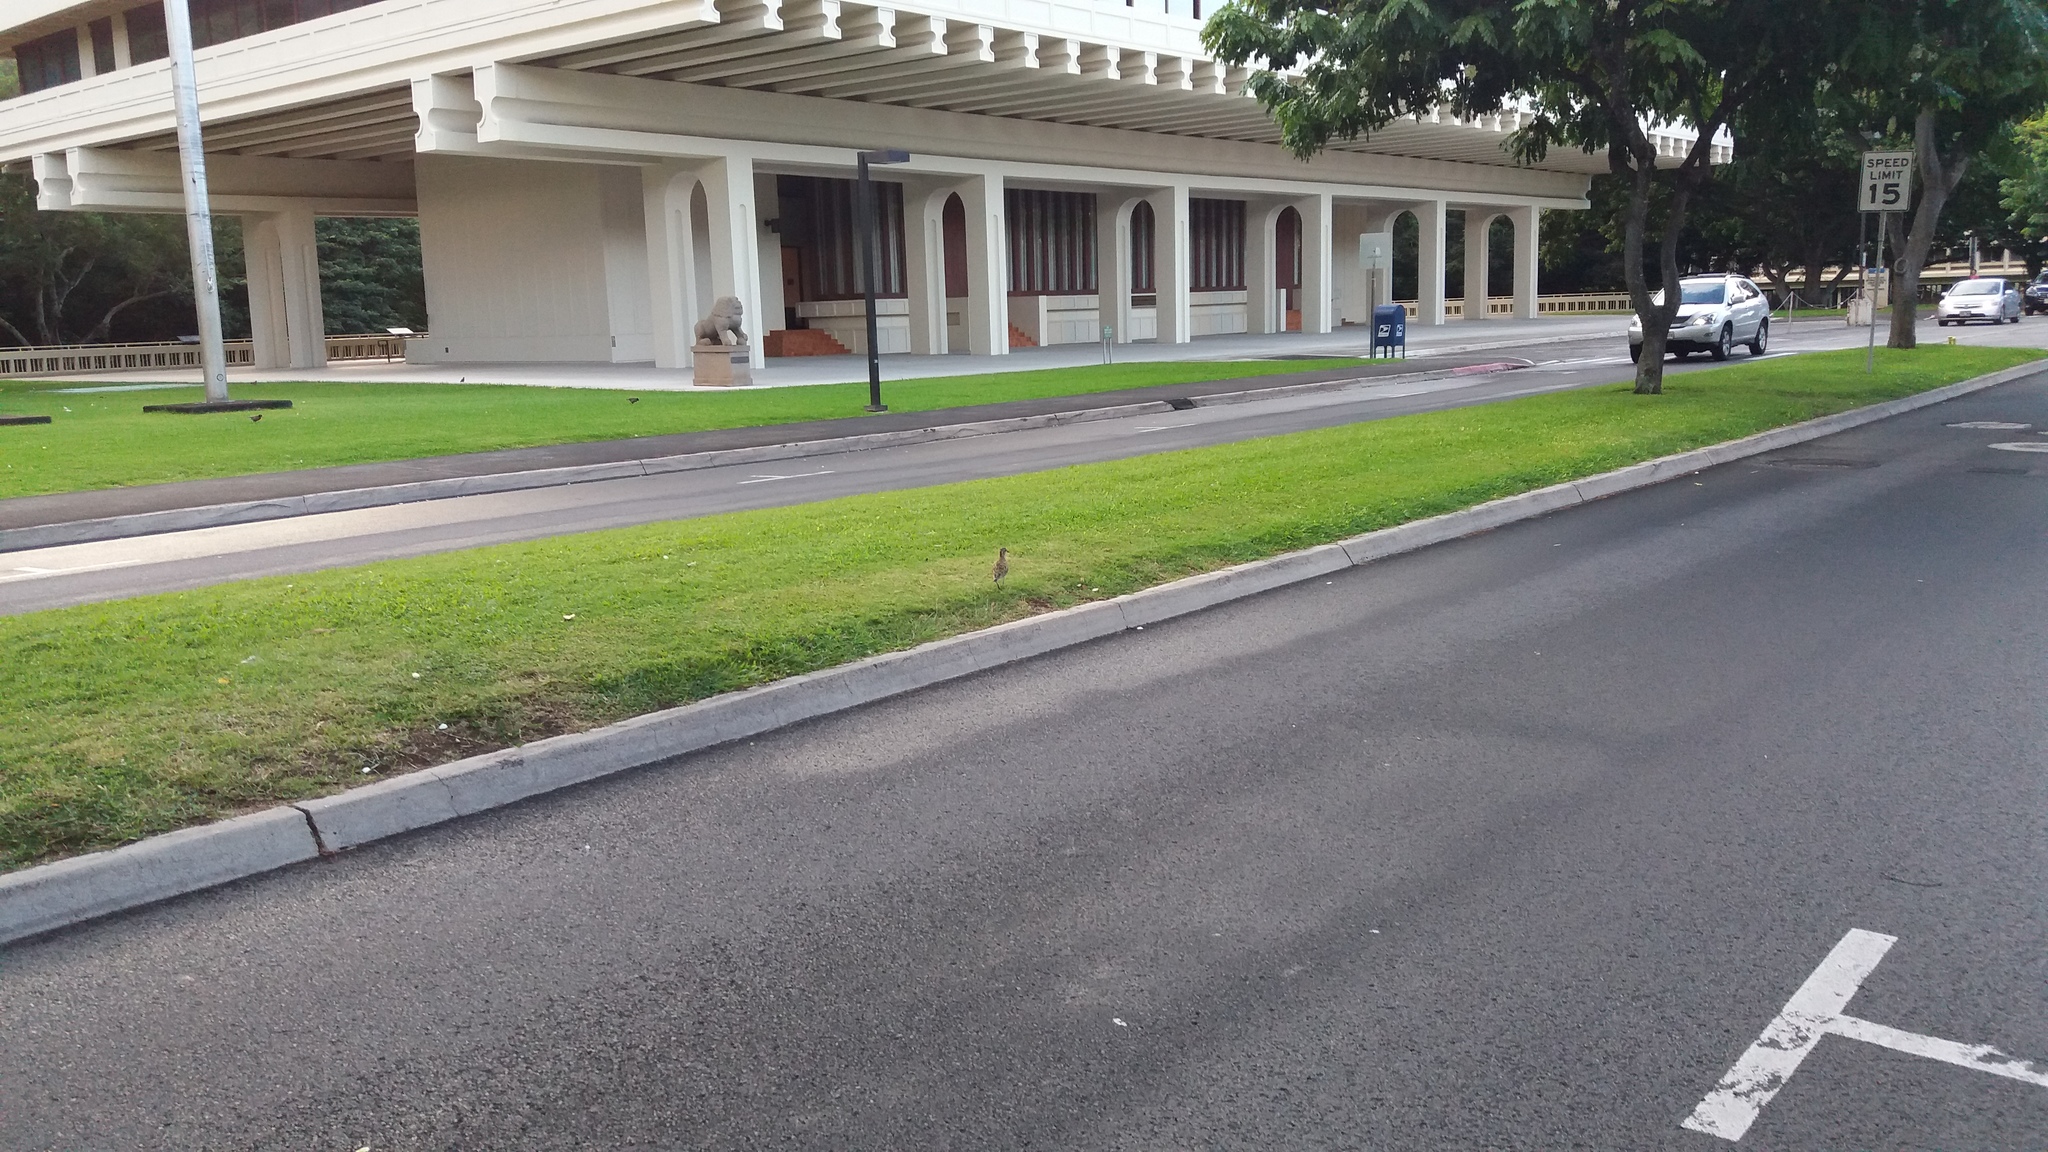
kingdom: Animalia
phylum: Chordata
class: Aves
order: Charadriiformes
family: Charadriidae
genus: Pluvialis
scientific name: Pluvialis fulva
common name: Pacific golden plover
